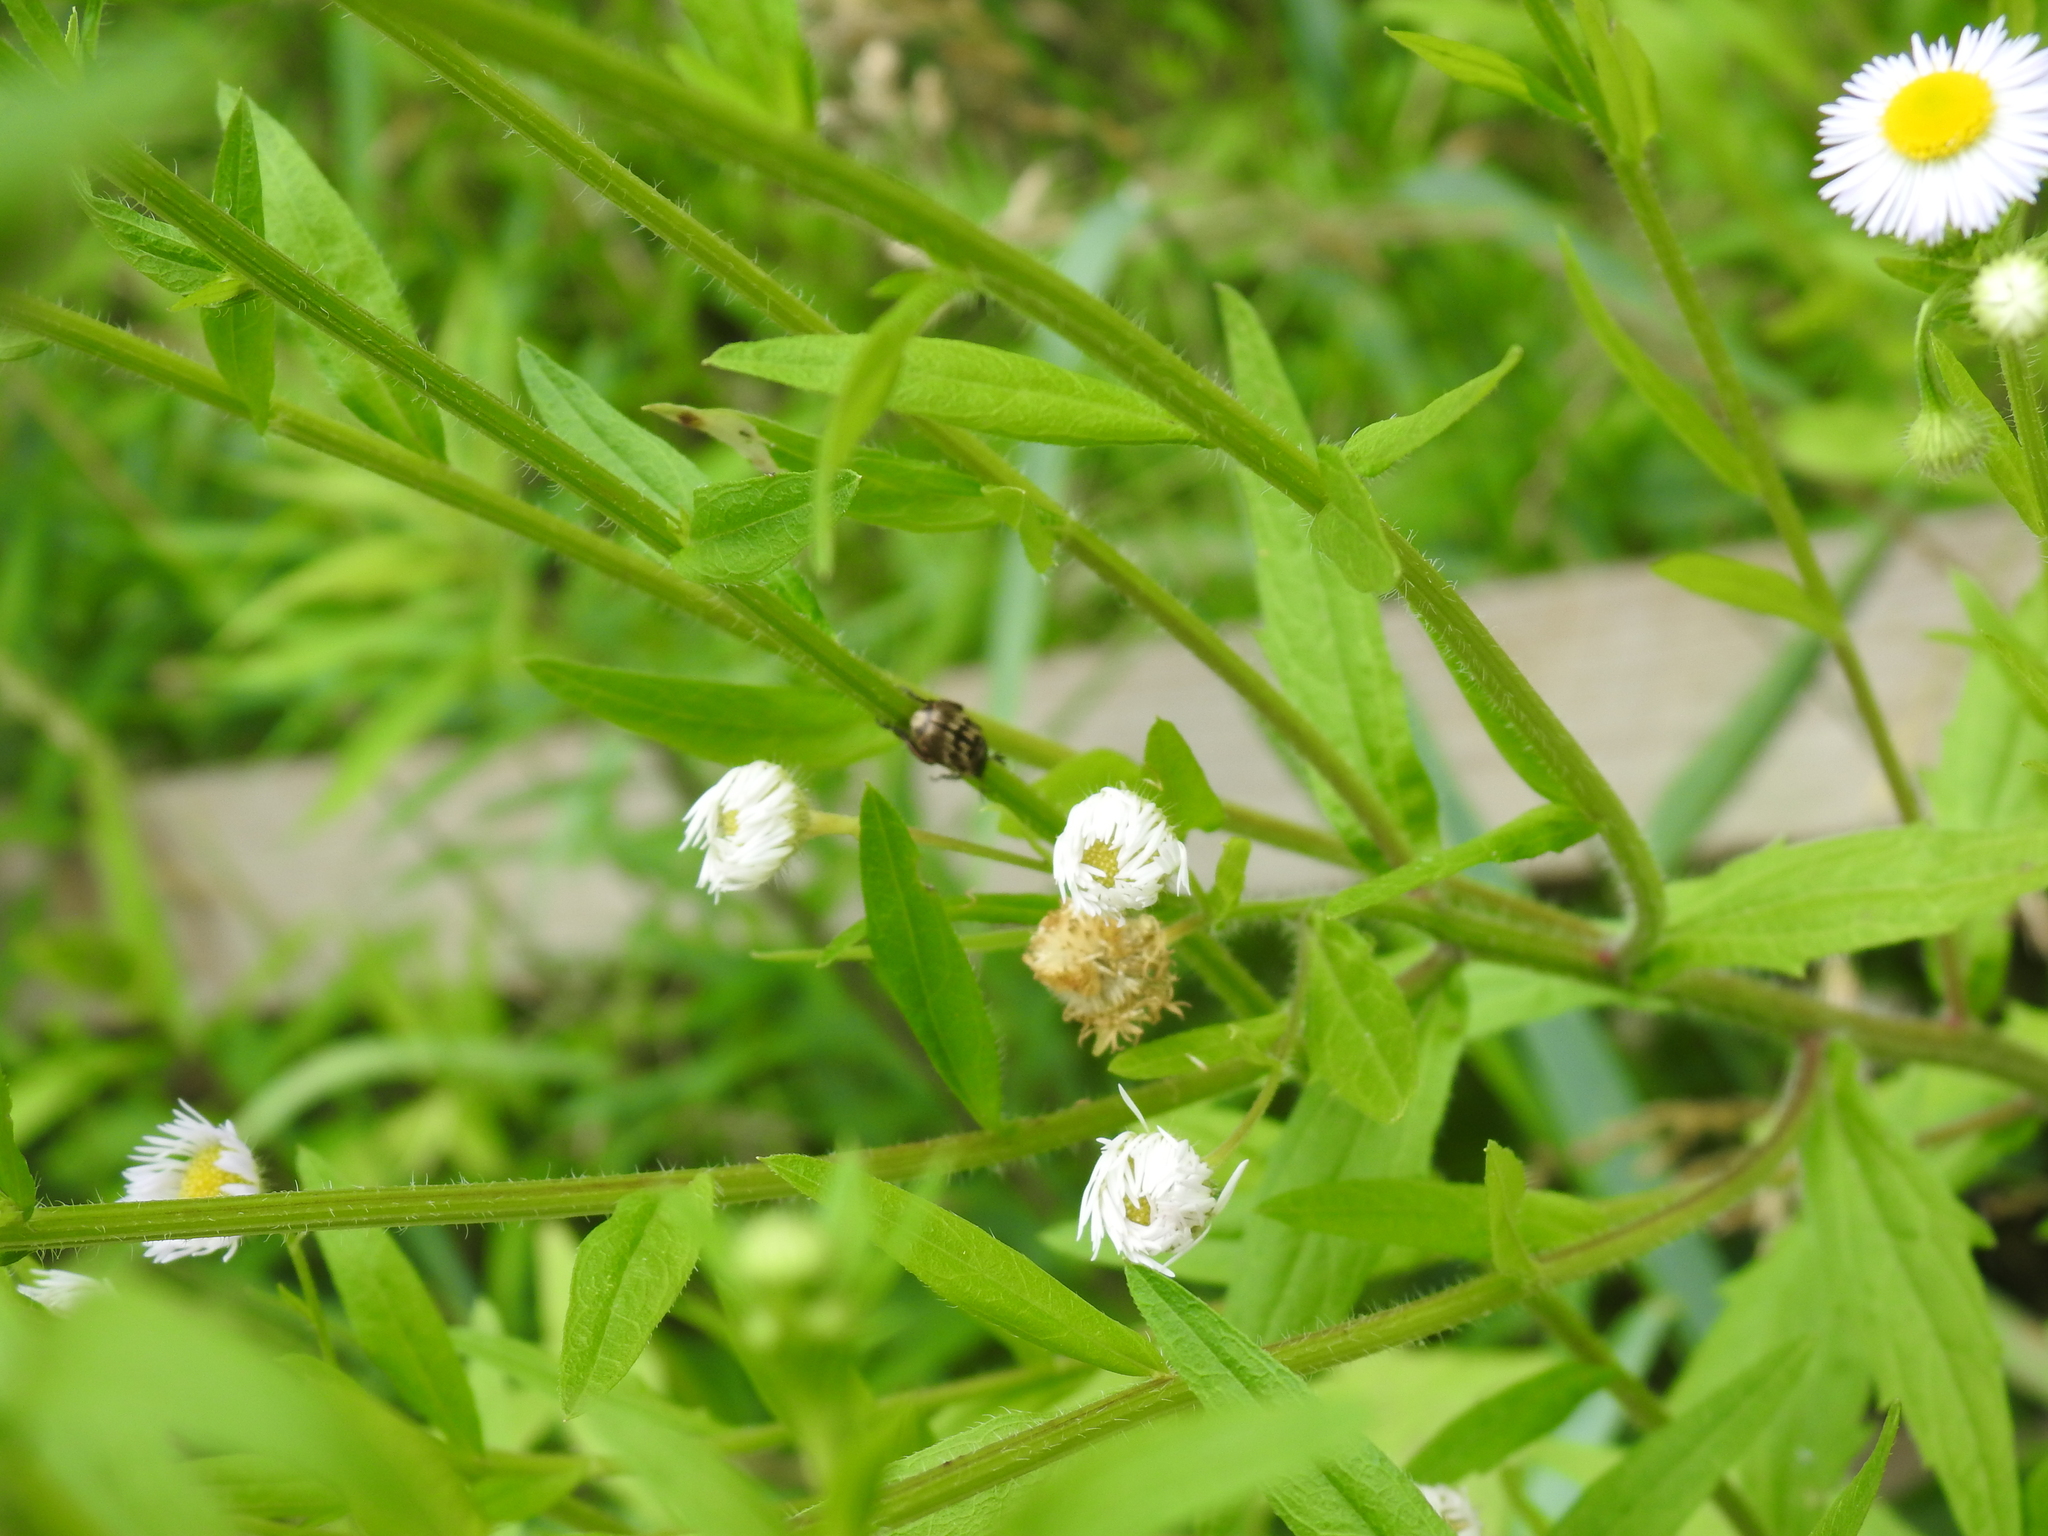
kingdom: Animalia
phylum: Arthropoda
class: Insecta
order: Coleoptera
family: Scarabaeidae
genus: Exomala
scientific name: Exomala orientalis
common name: Oriental beetle
